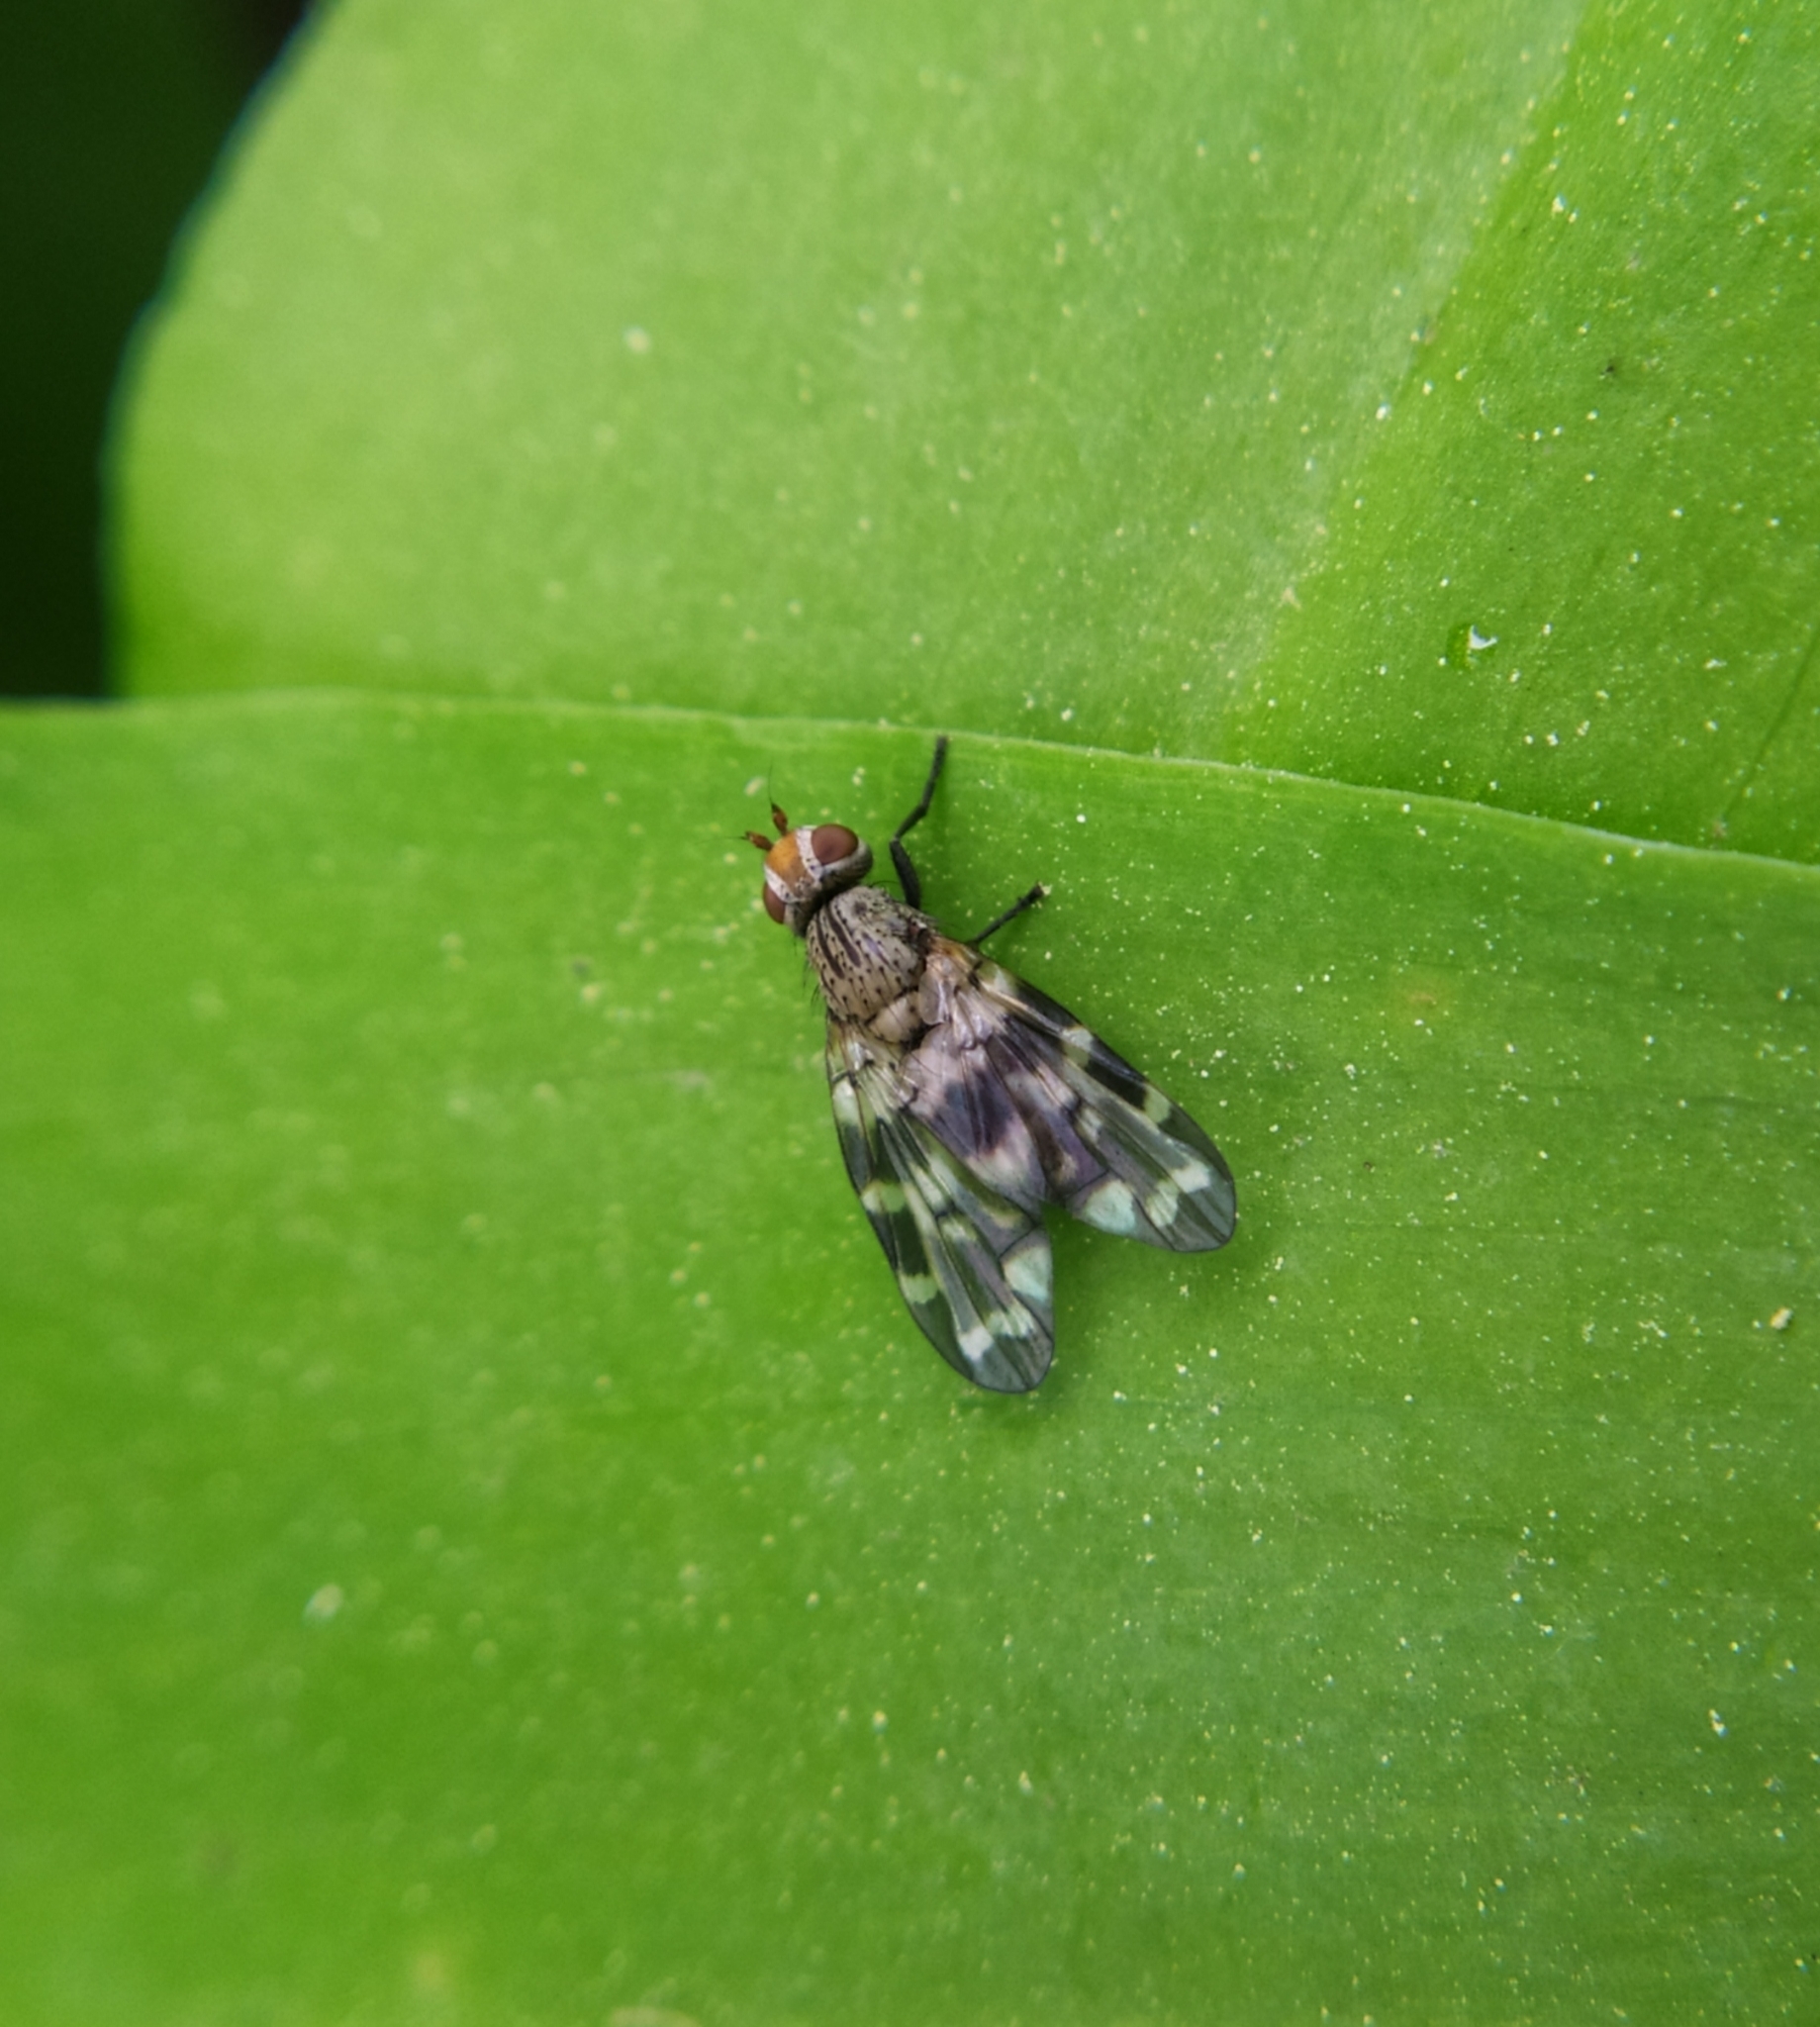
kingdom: Animalia
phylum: Arthropoda
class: Insecta
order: Diptera
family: Ulidiidae
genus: Otites
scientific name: Otites centralis
